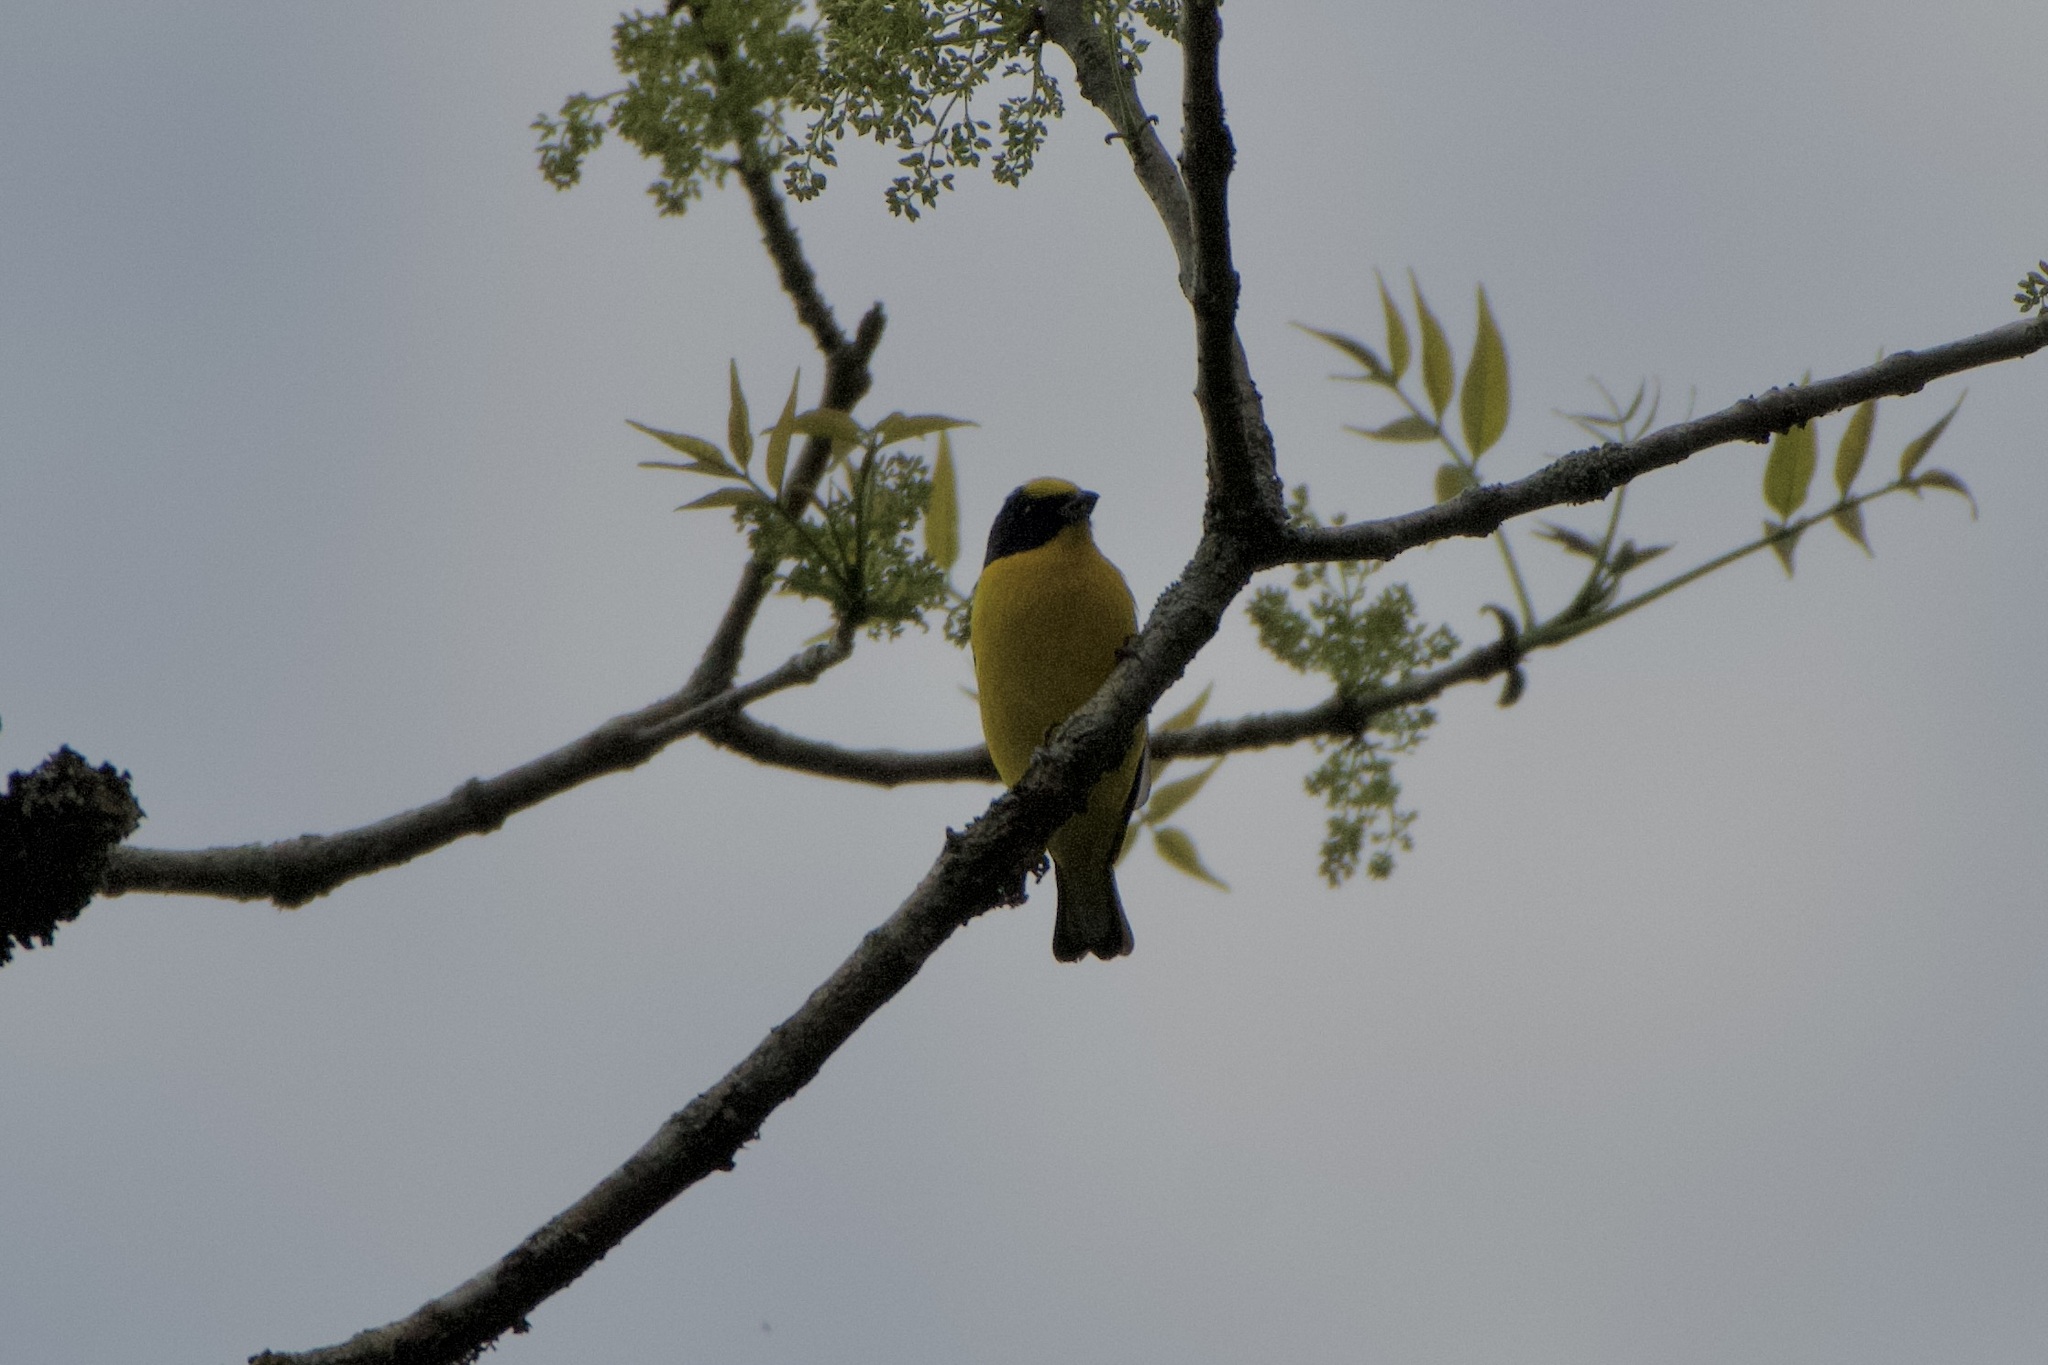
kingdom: Animalia
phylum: Chordata
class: Aves
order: Passeriformes
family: Fringillidae
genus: Euphonia
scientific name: Euphonia laniirostris
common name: Thick-billed euphonia
